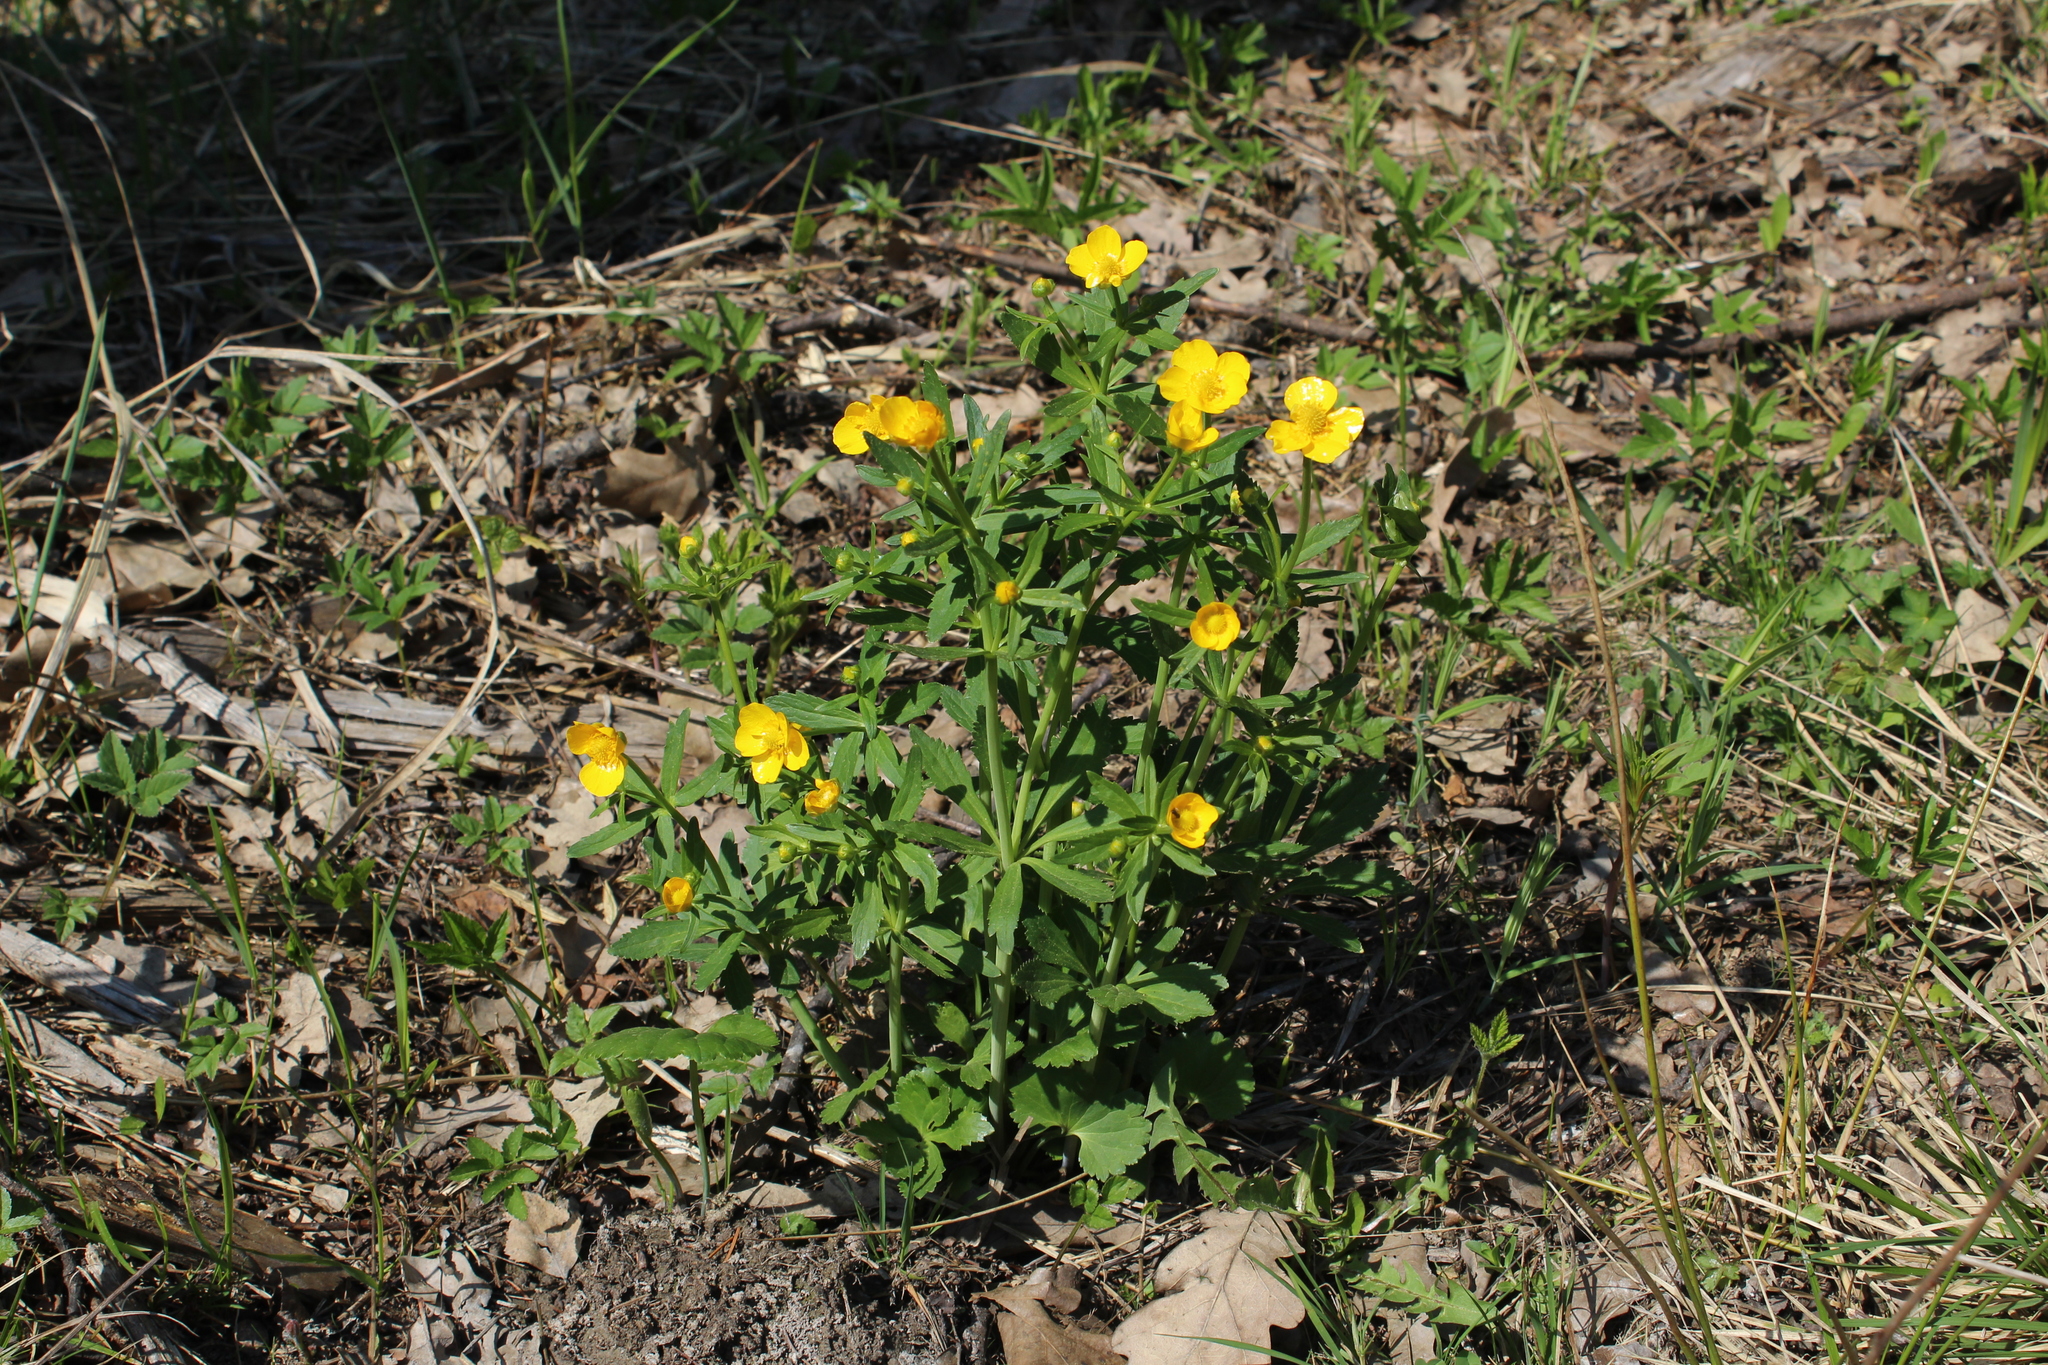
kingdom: Plantae
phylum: Tracheophyta
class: Magnoliopsida
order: Ranunculales
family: Ranunculaceae
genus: Ranunculus
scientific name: Ranunculus fallax
